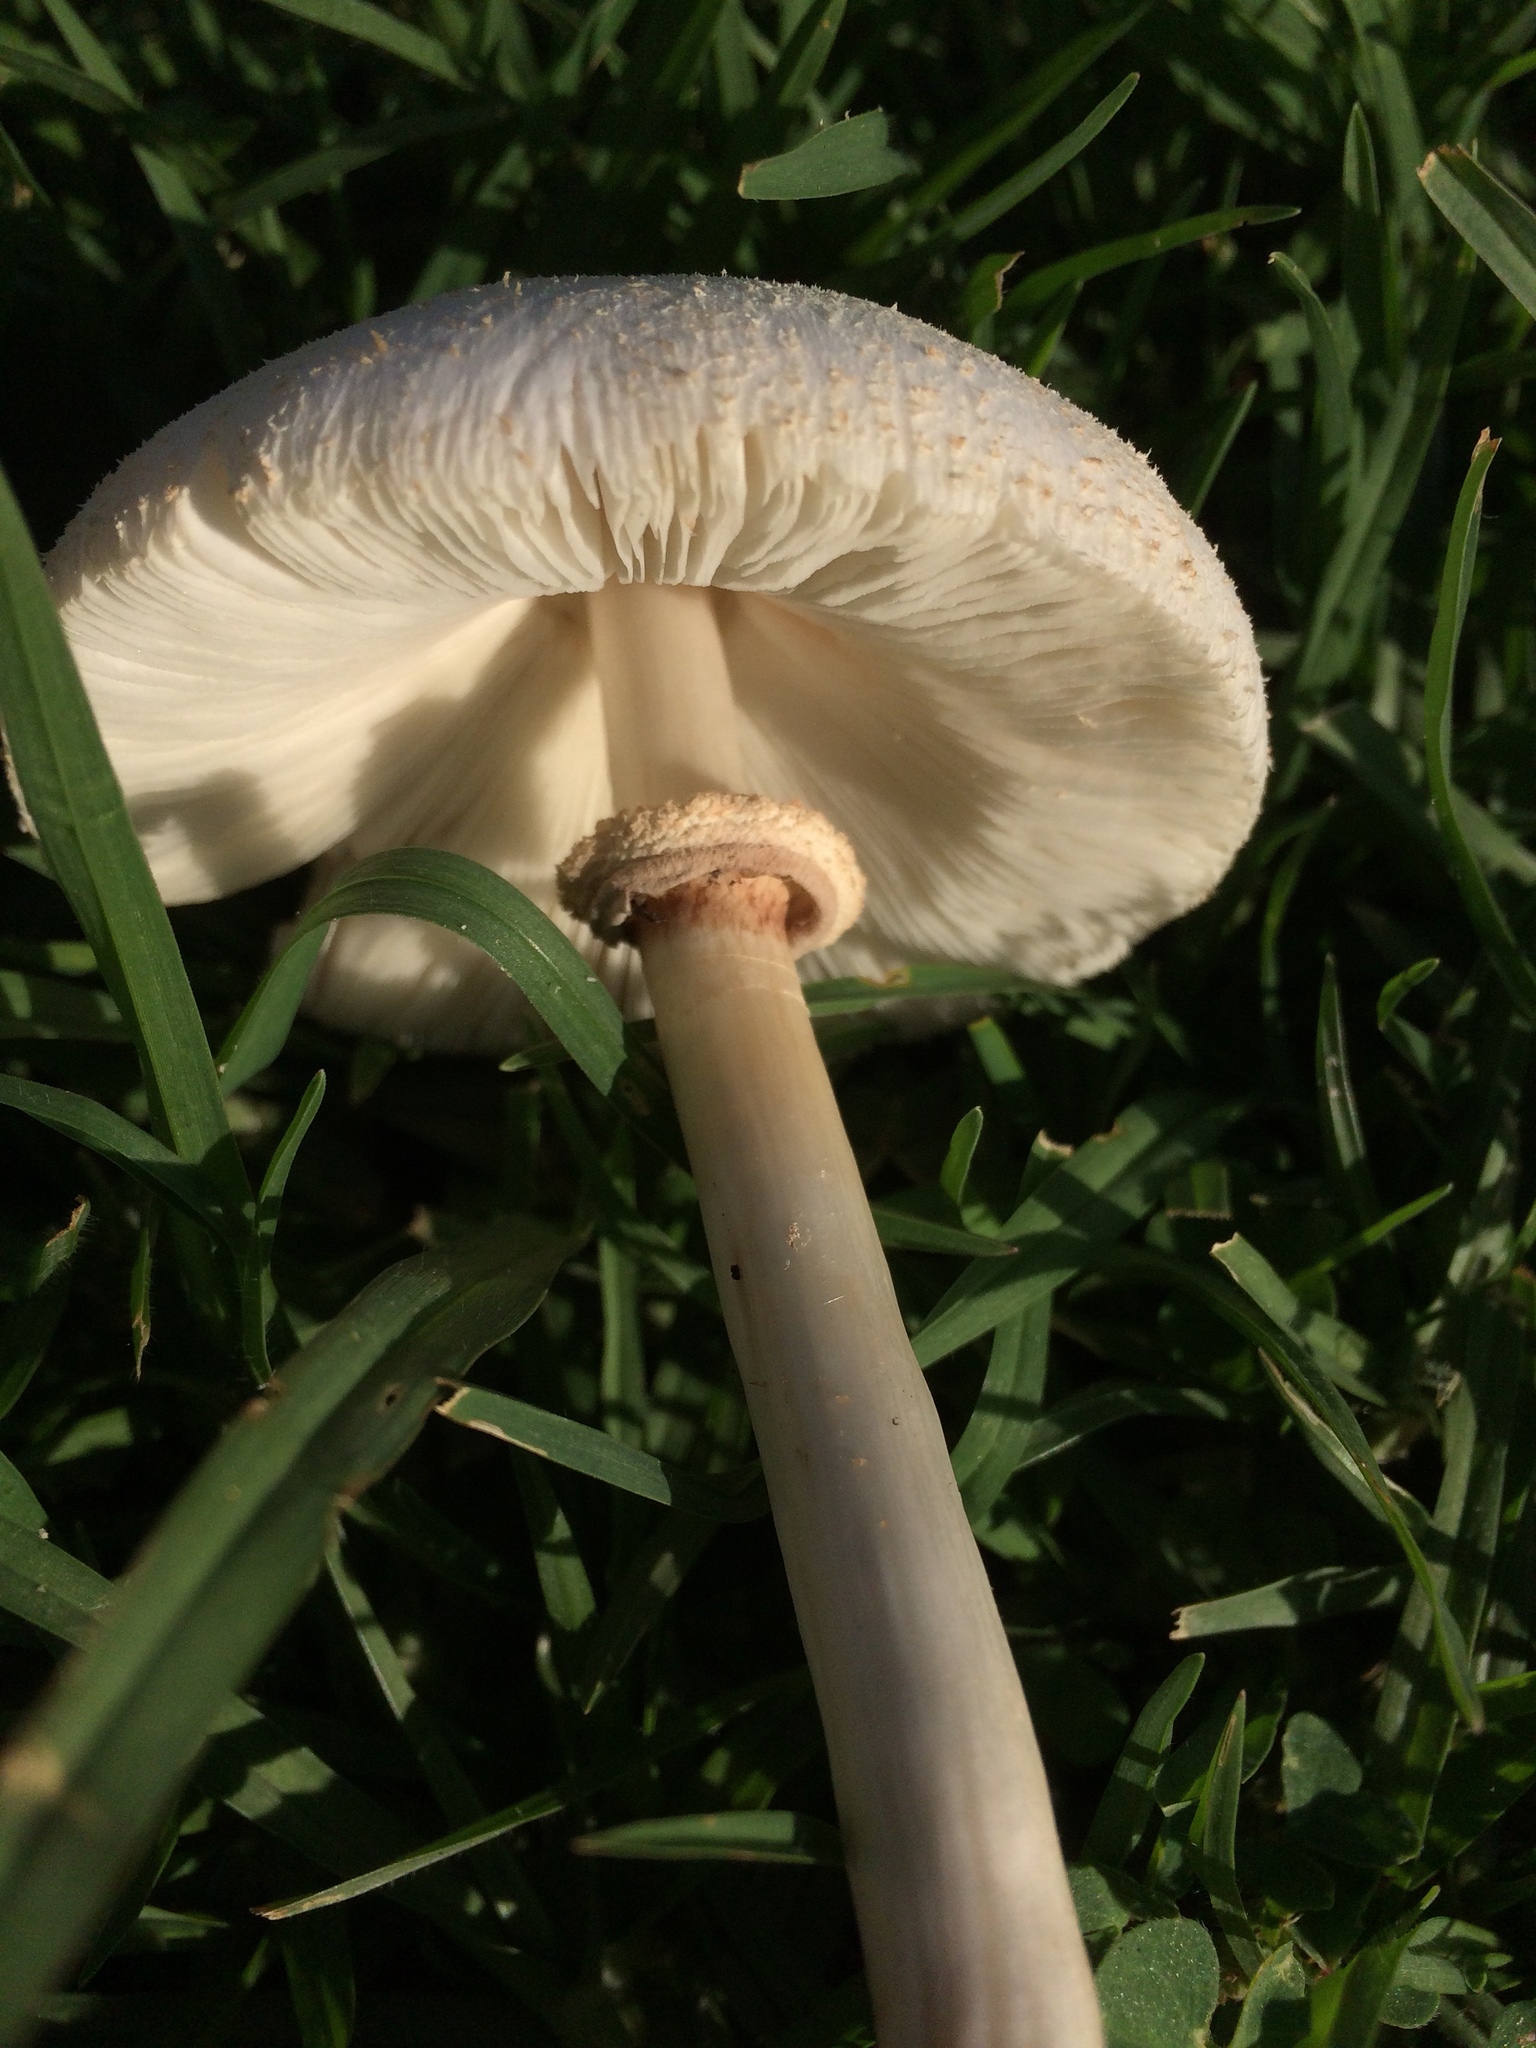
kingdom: Fungi
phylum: Basidiomycota
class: Agaricomycetes
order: Agaricales
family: Agaricaceae
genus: Chlorophyllum
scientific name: Chlorophyllum molybdites
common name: False parasol
